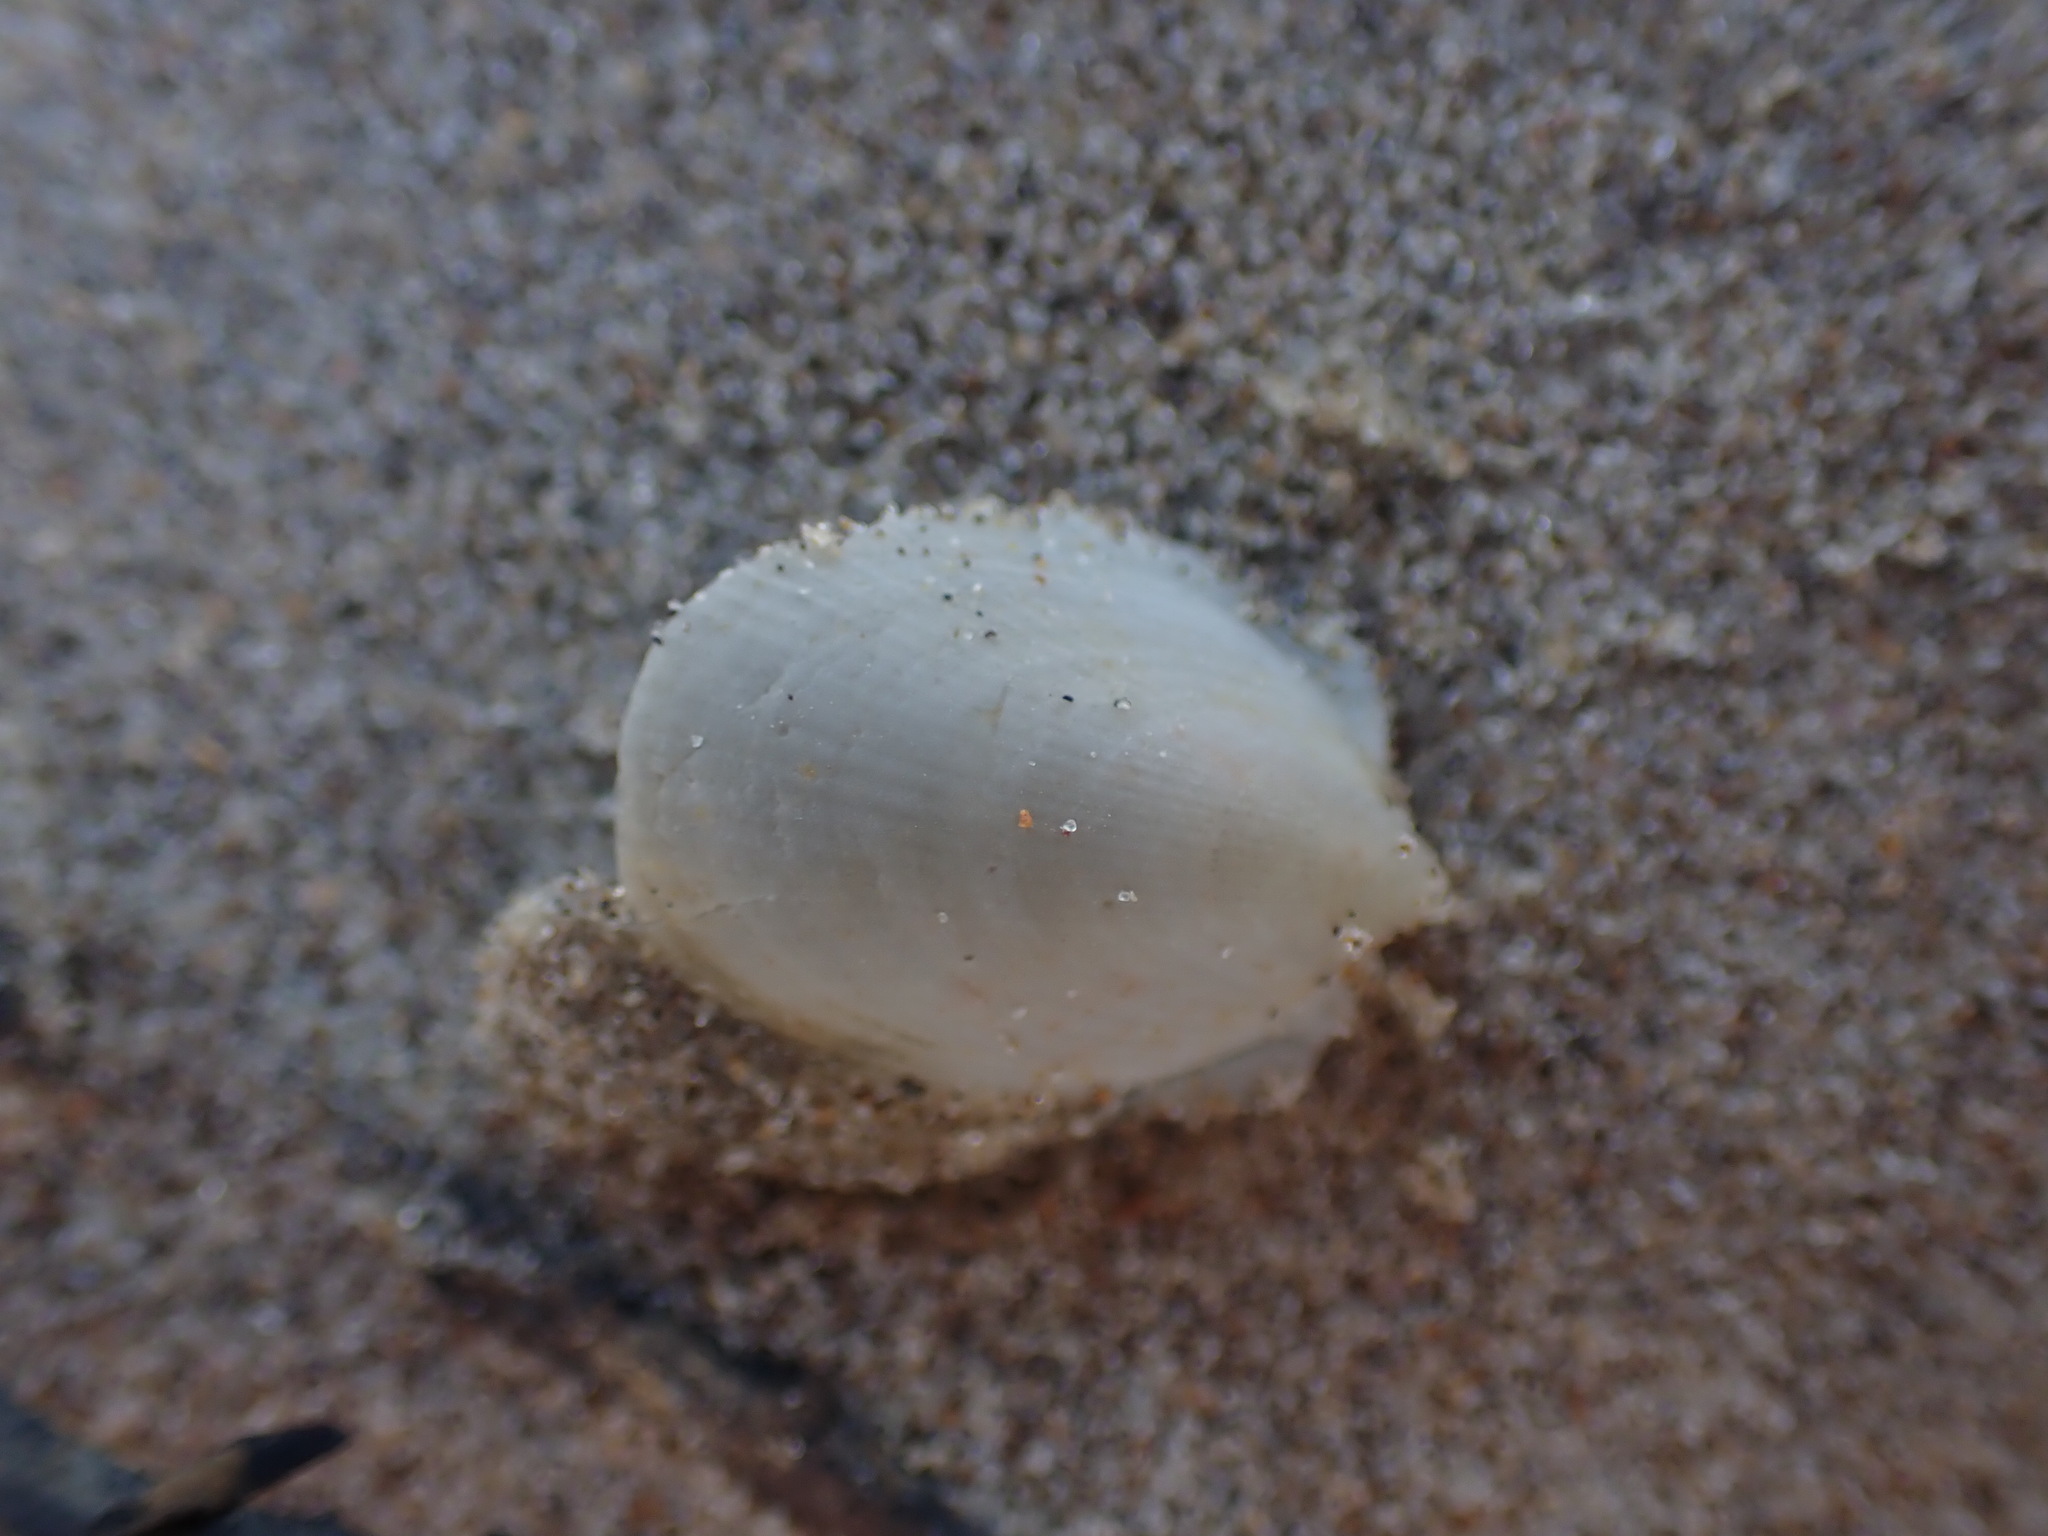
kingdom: Animalia
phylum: Mollusca
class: Bivalvia
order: Limida
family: Limidae
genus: Limatula
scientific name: Limatula maoria
